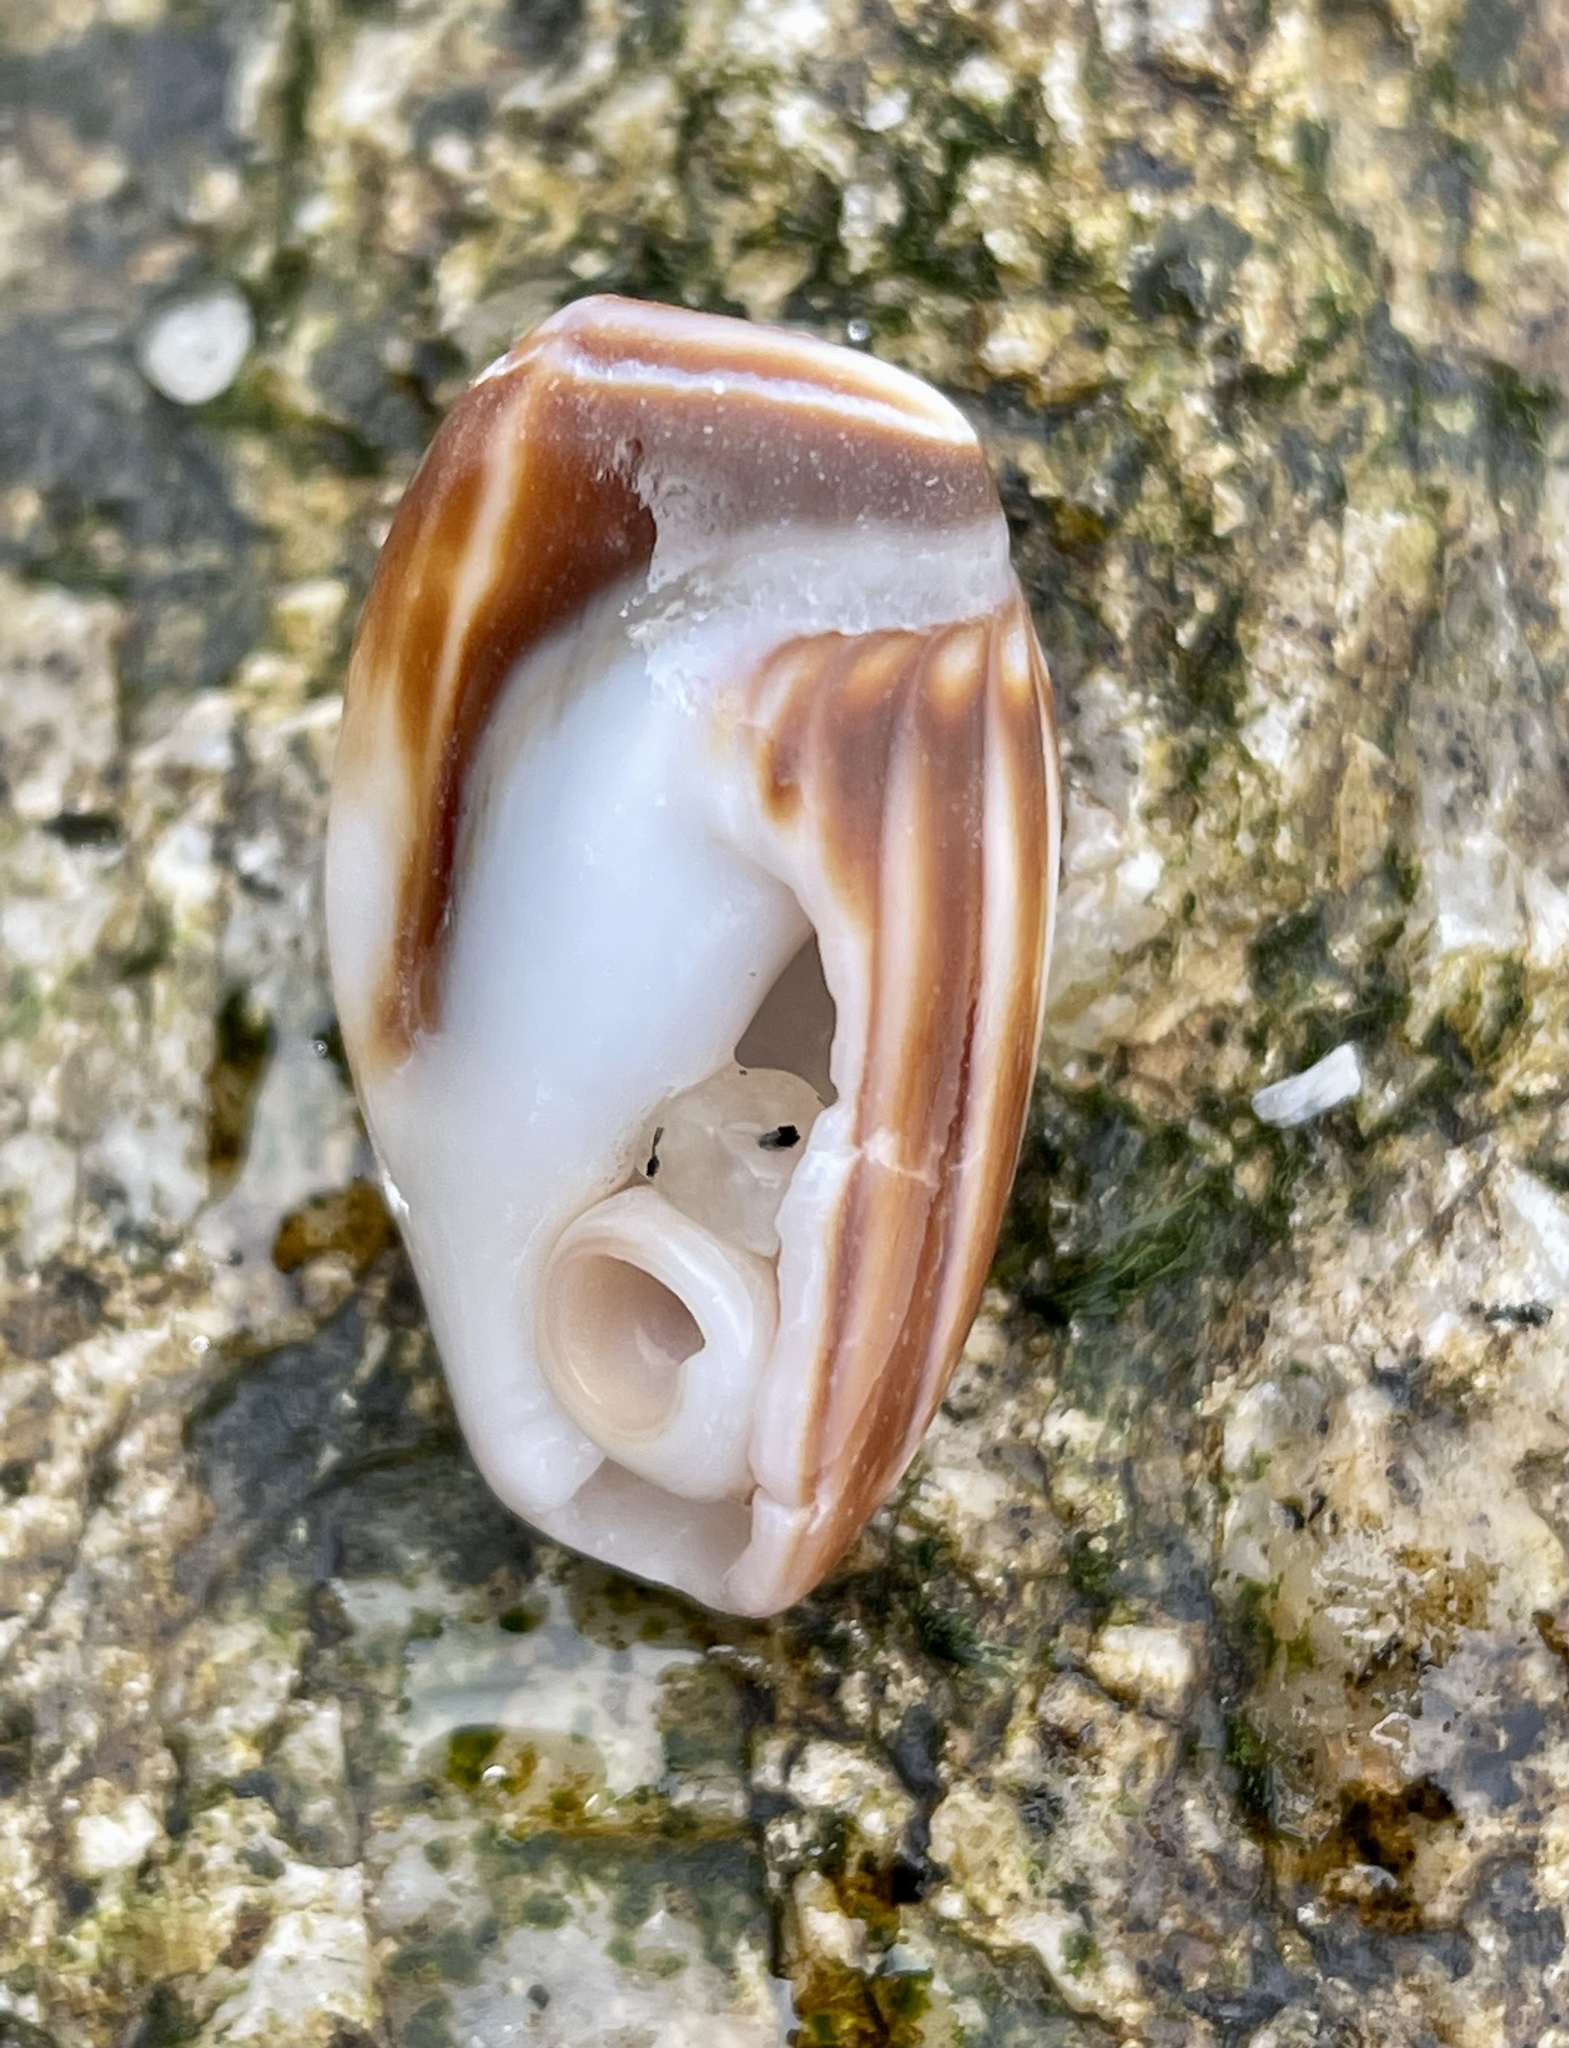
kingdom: Animalia
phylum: Mollusca
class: Gastropoda
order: Neogastropoda
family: Olividae
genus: Callianax
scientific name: Callianax biplicata
